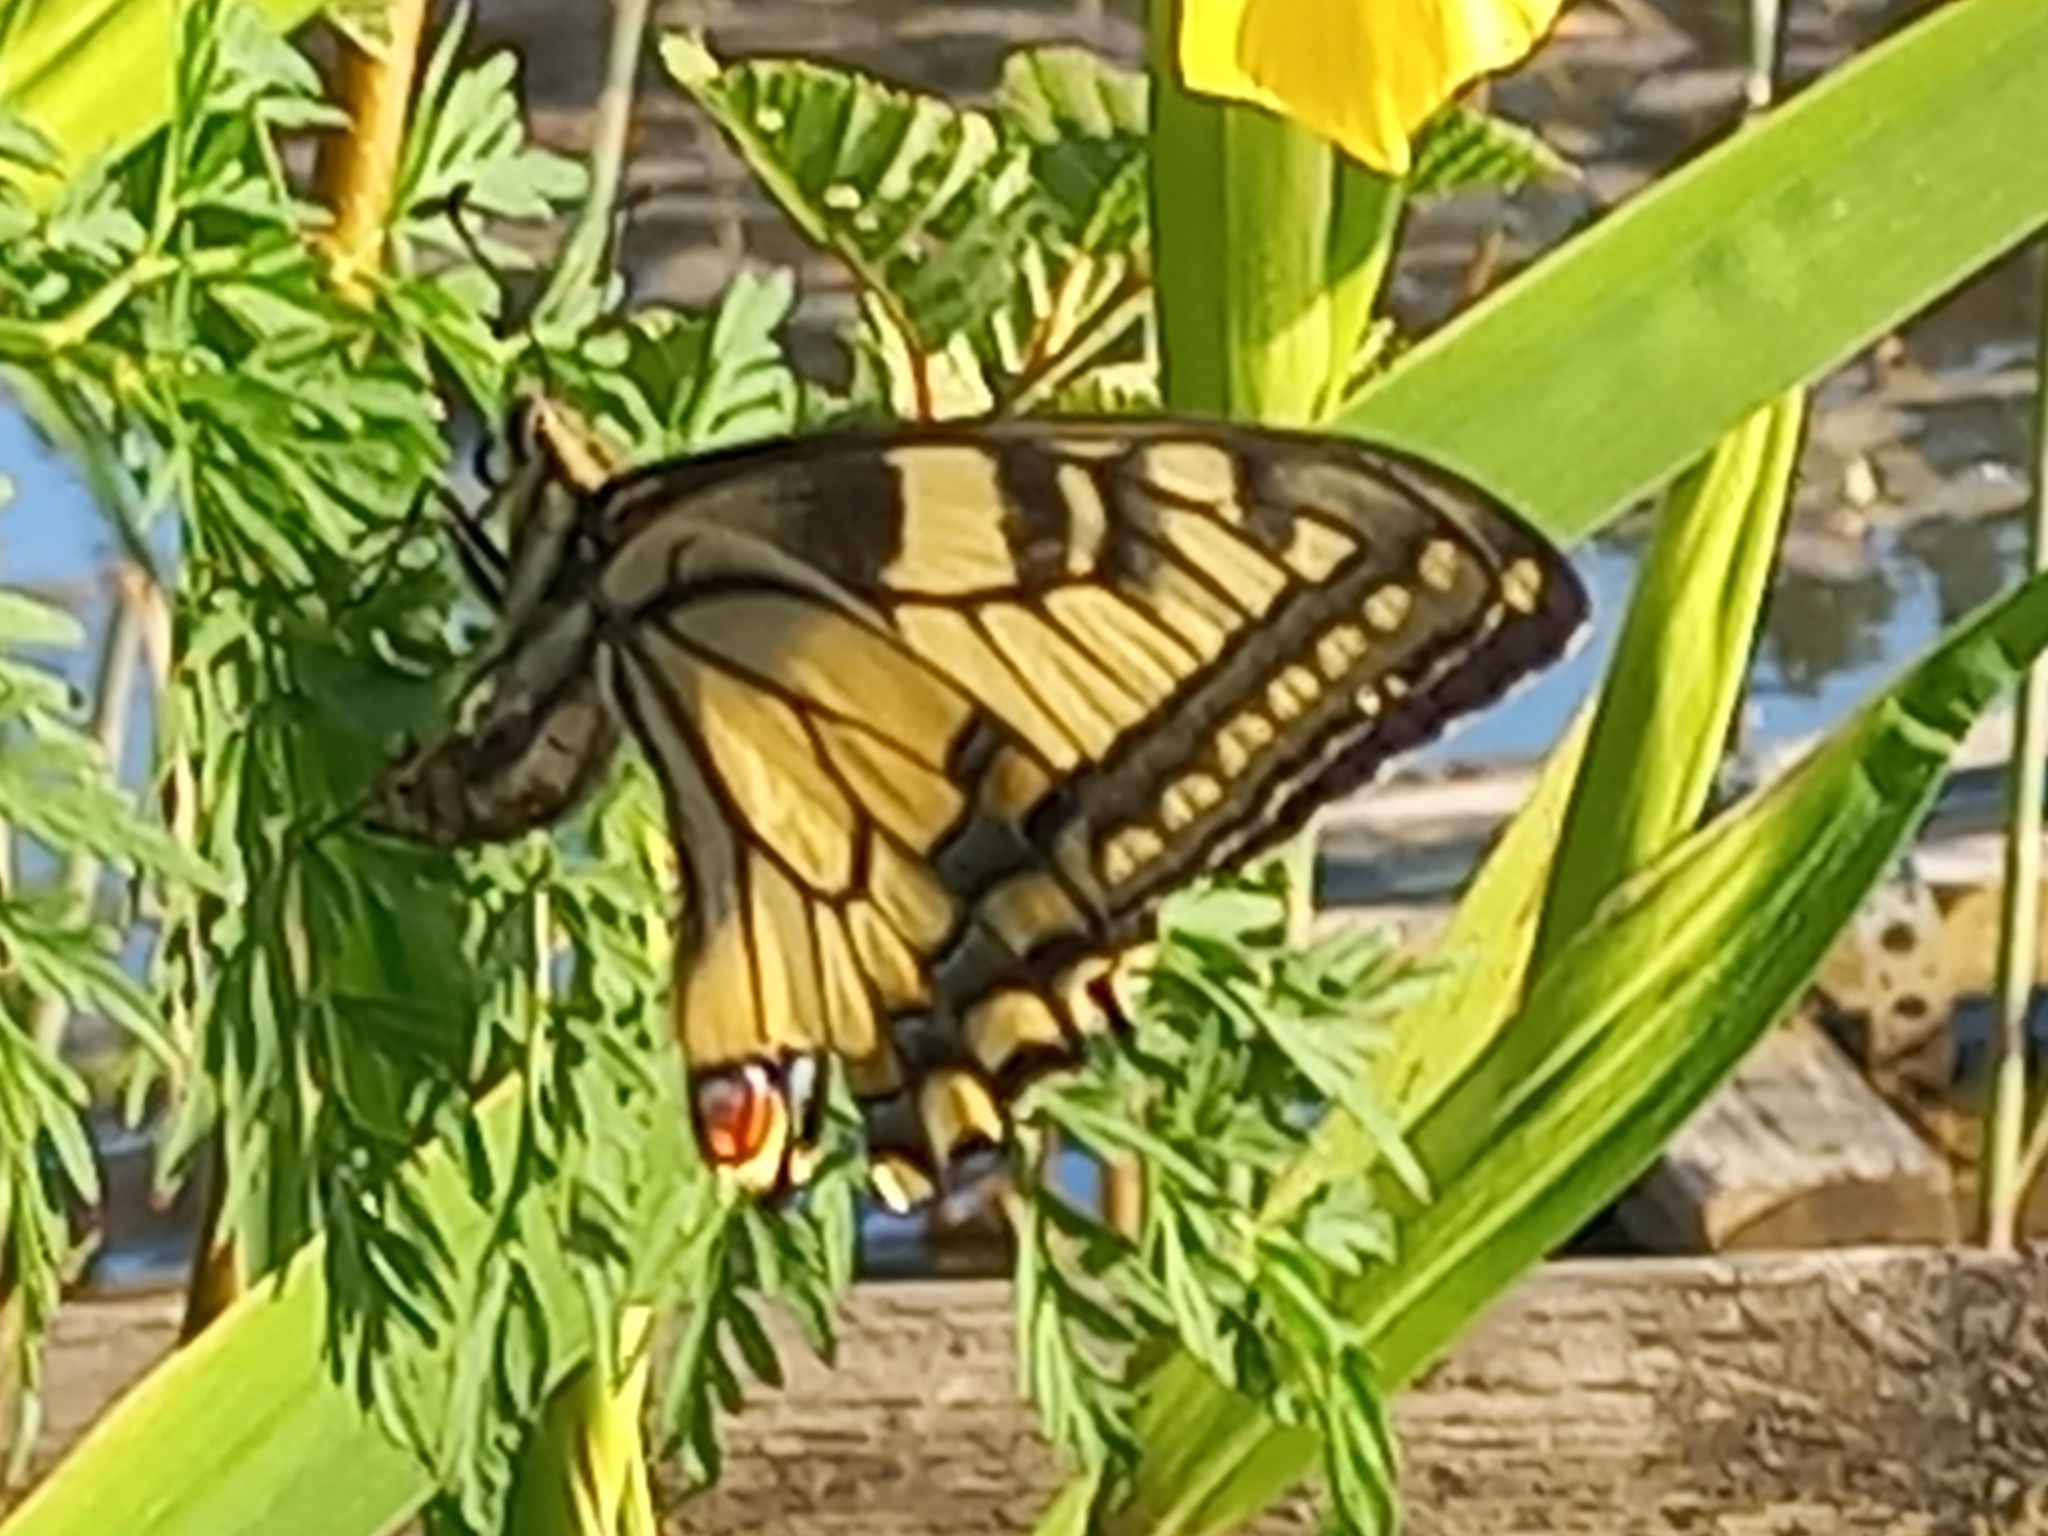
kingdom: Animalia
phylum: Arthropoda
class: Insecta
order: Lepidoptera
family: Papilionidae
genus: Papilio
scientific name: Papilio machaon
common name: Swallowtail
